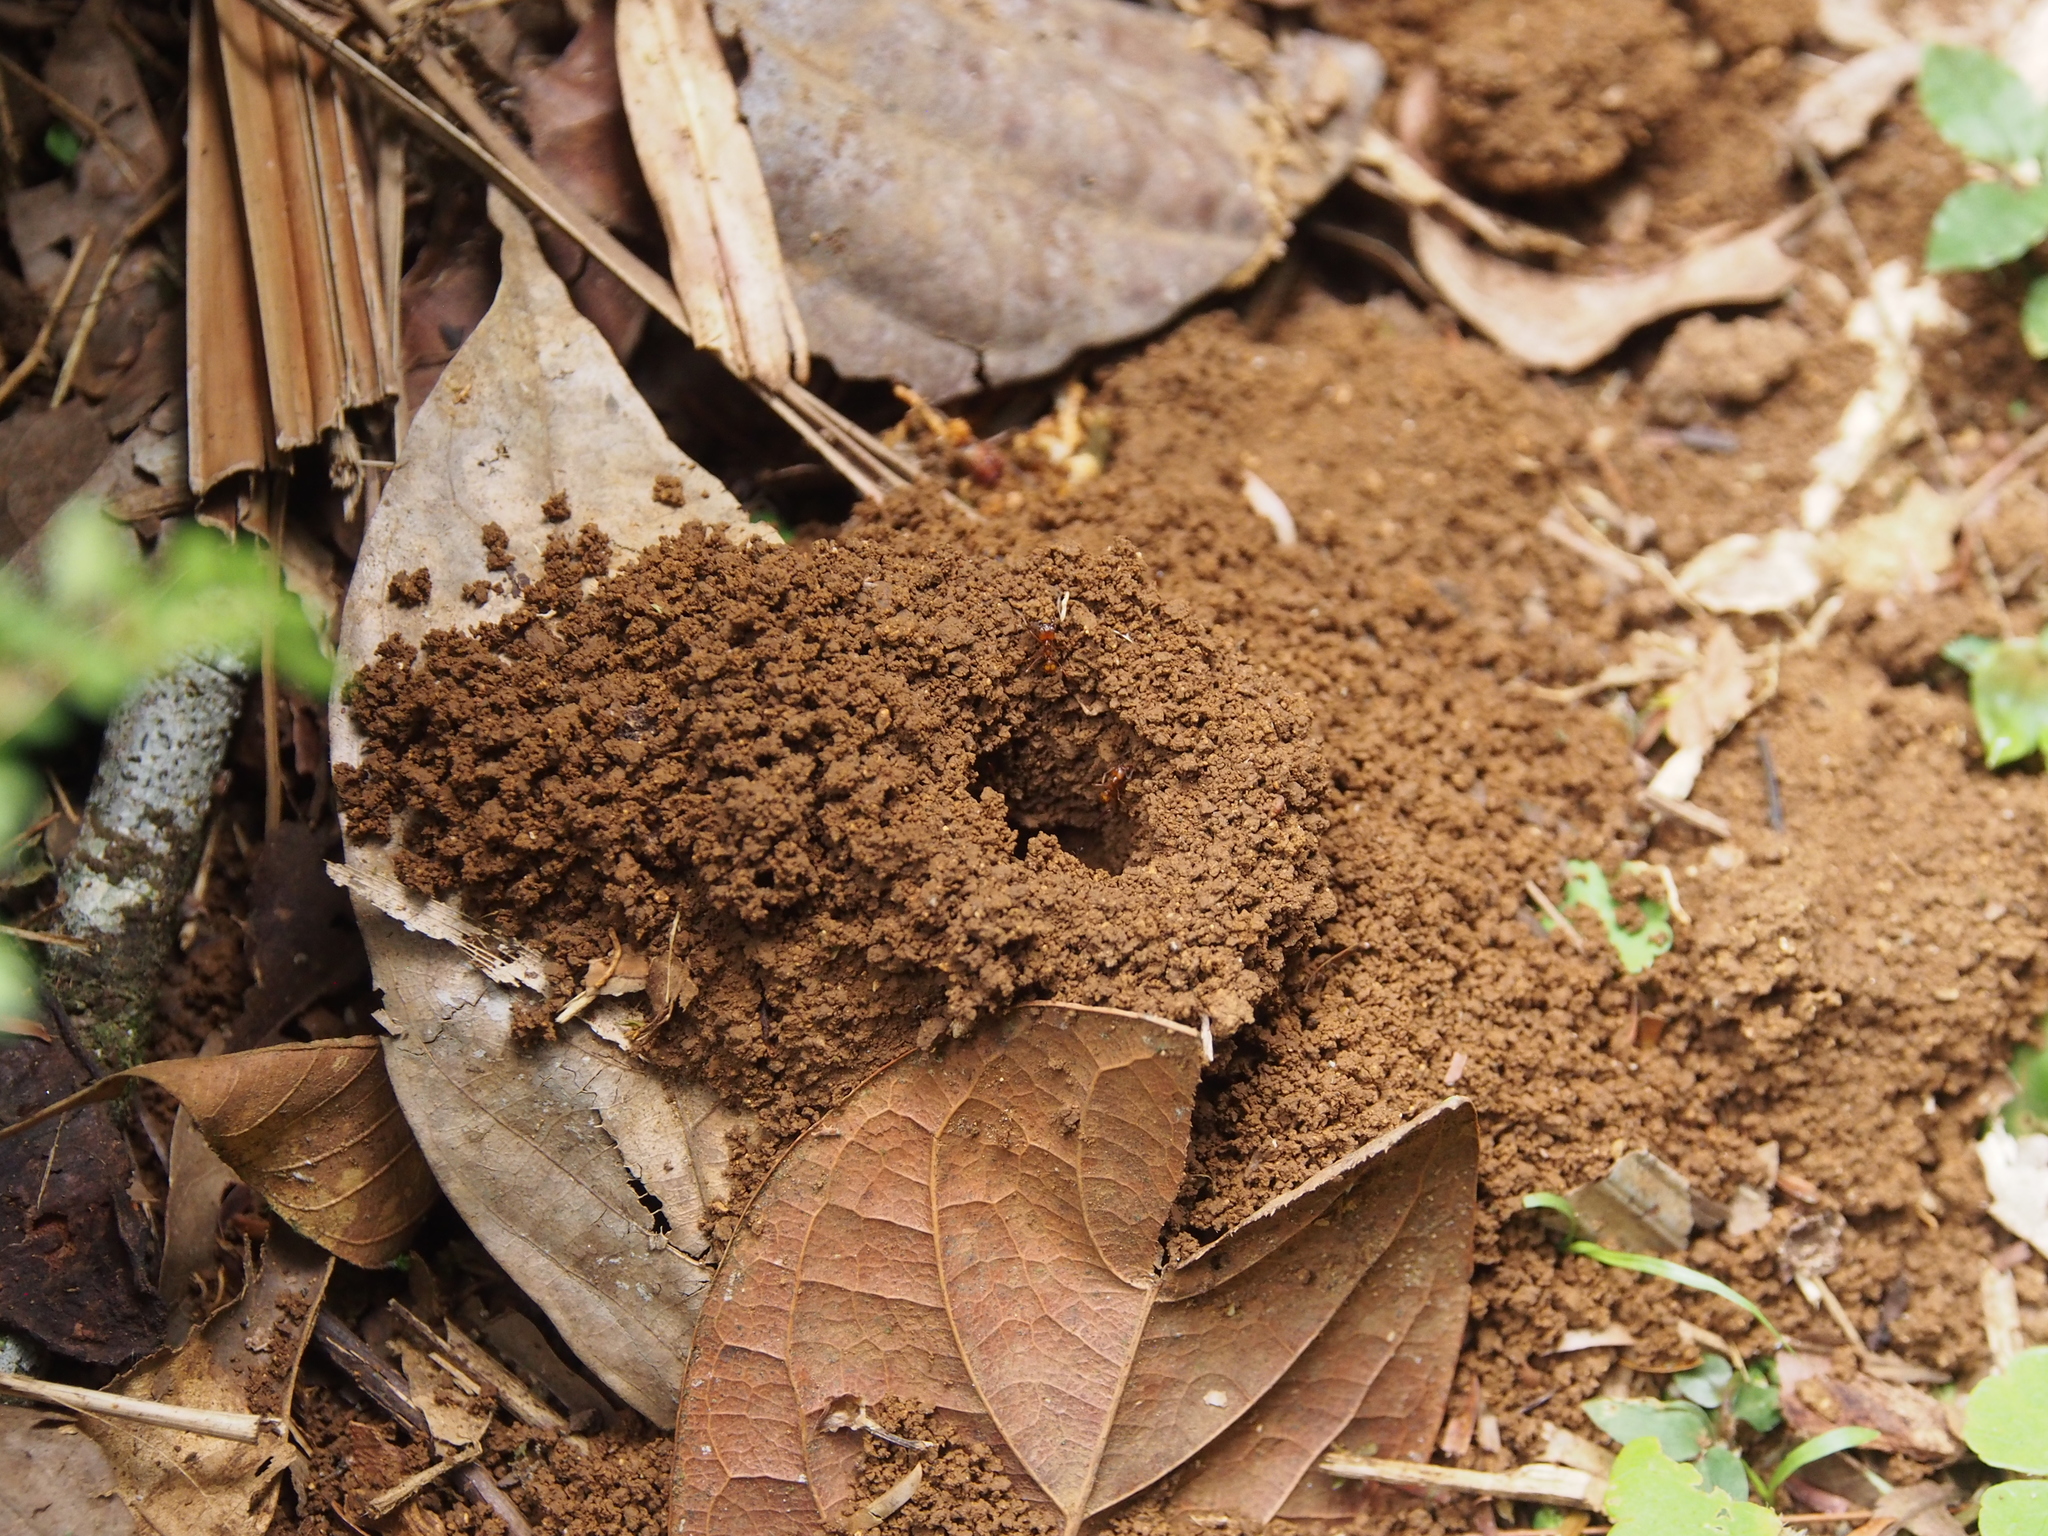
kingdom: Animalia
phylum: Arthropoda
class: Insecta
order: Hymenoptera
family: Formicidae
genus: Atta
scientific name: Atta cephalotes
